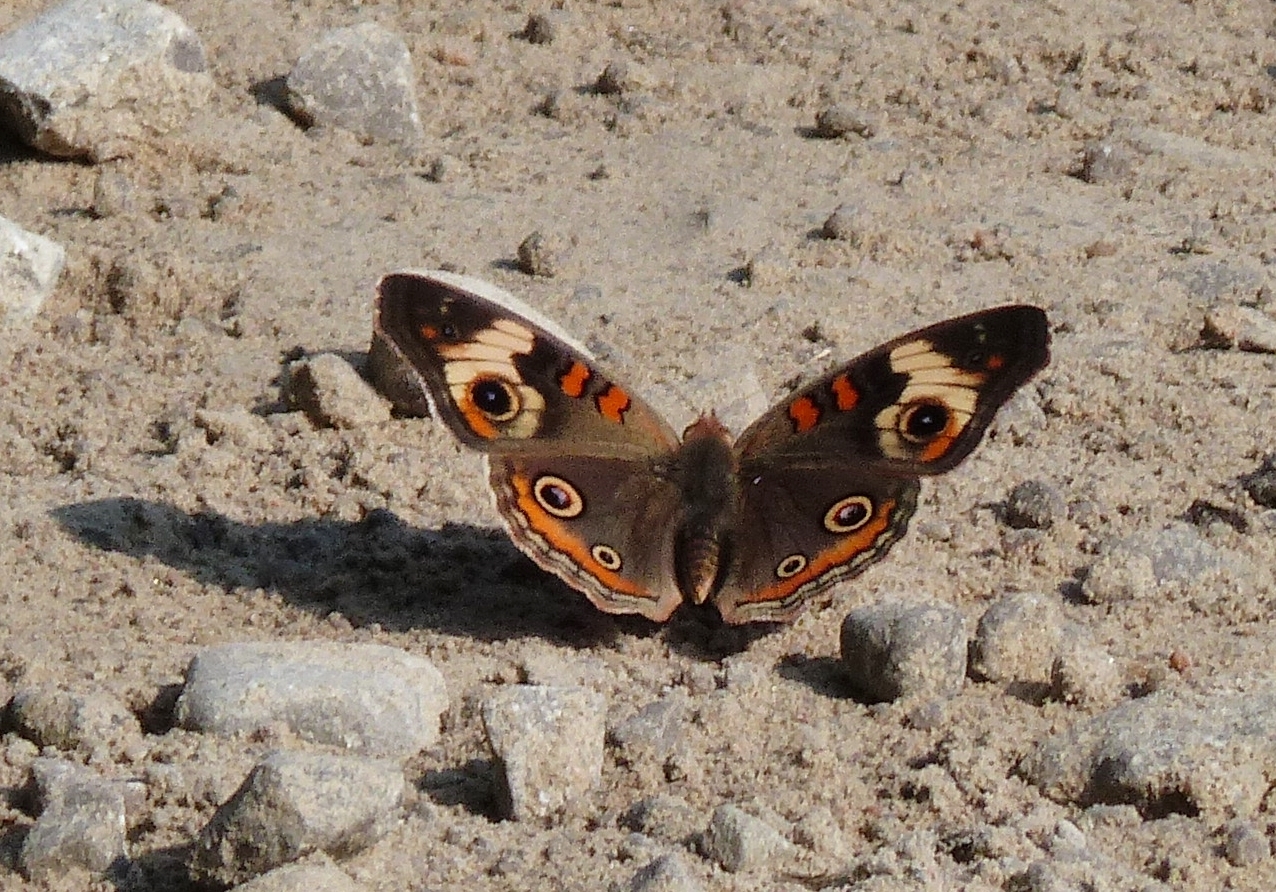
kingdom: Animalia
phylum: Arthropoda
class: Insecta
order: Lepidoptera
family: Nymphalidae
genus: Junonia
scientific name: Junonia coenia
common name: Common buckeye
